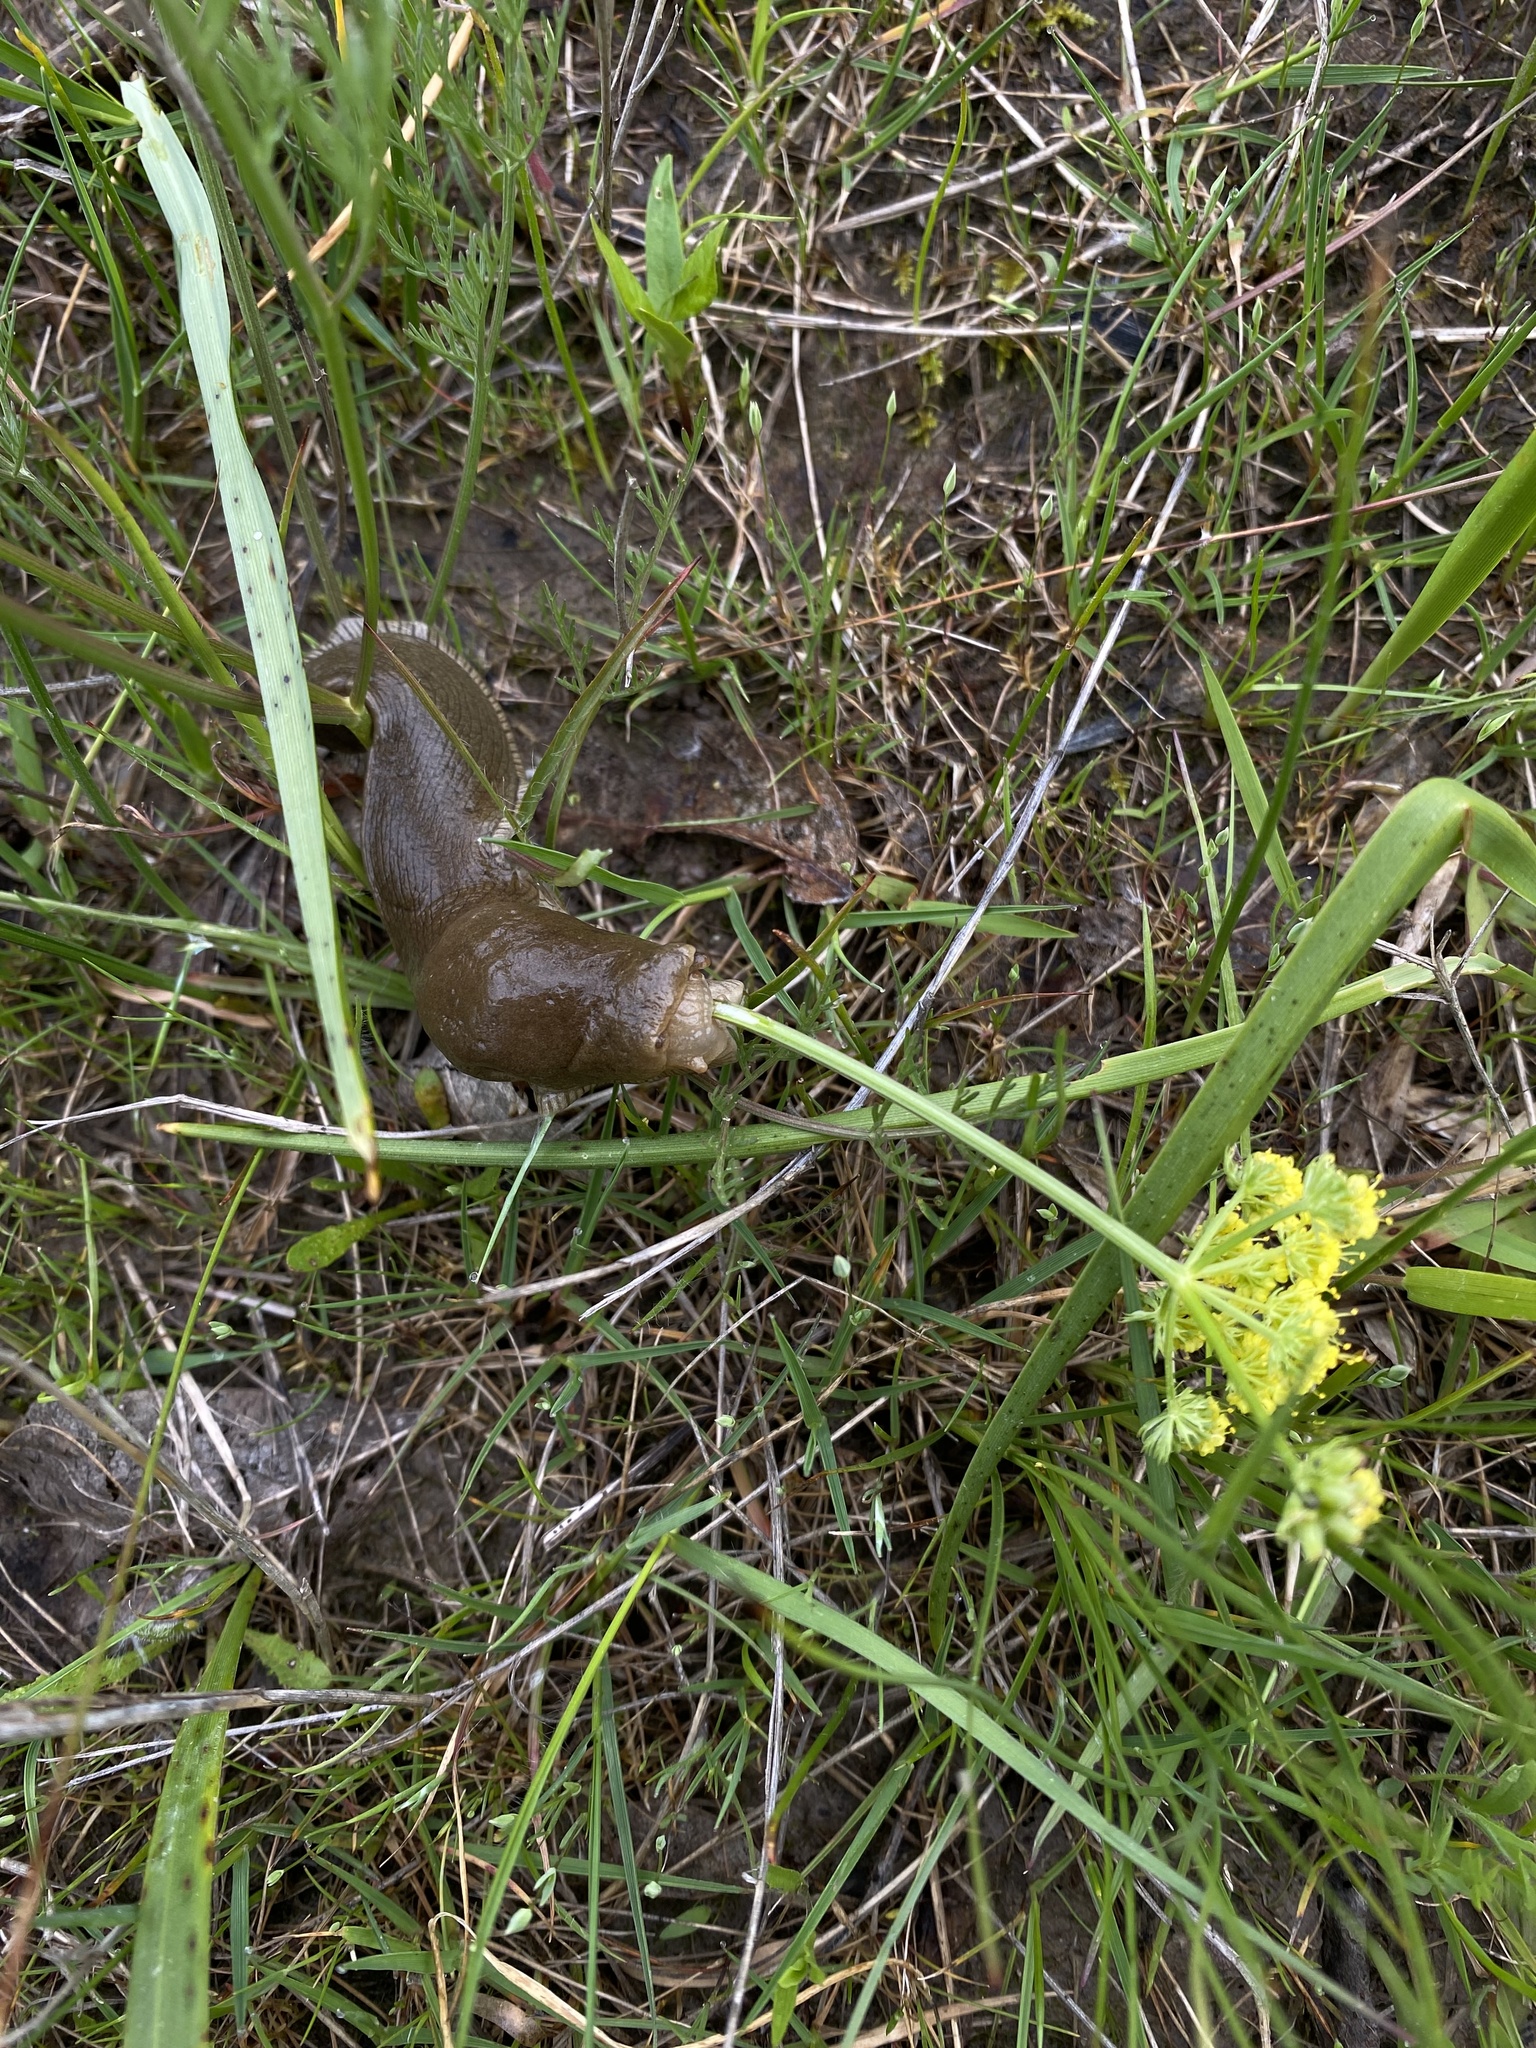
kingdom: Animalia
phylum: Mollusca
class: Gastropoda
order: Stylommatophora
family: Ariolimacidae
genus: Ariolimax
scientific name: Ariolimax columbianus
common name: Pacific banana slug
